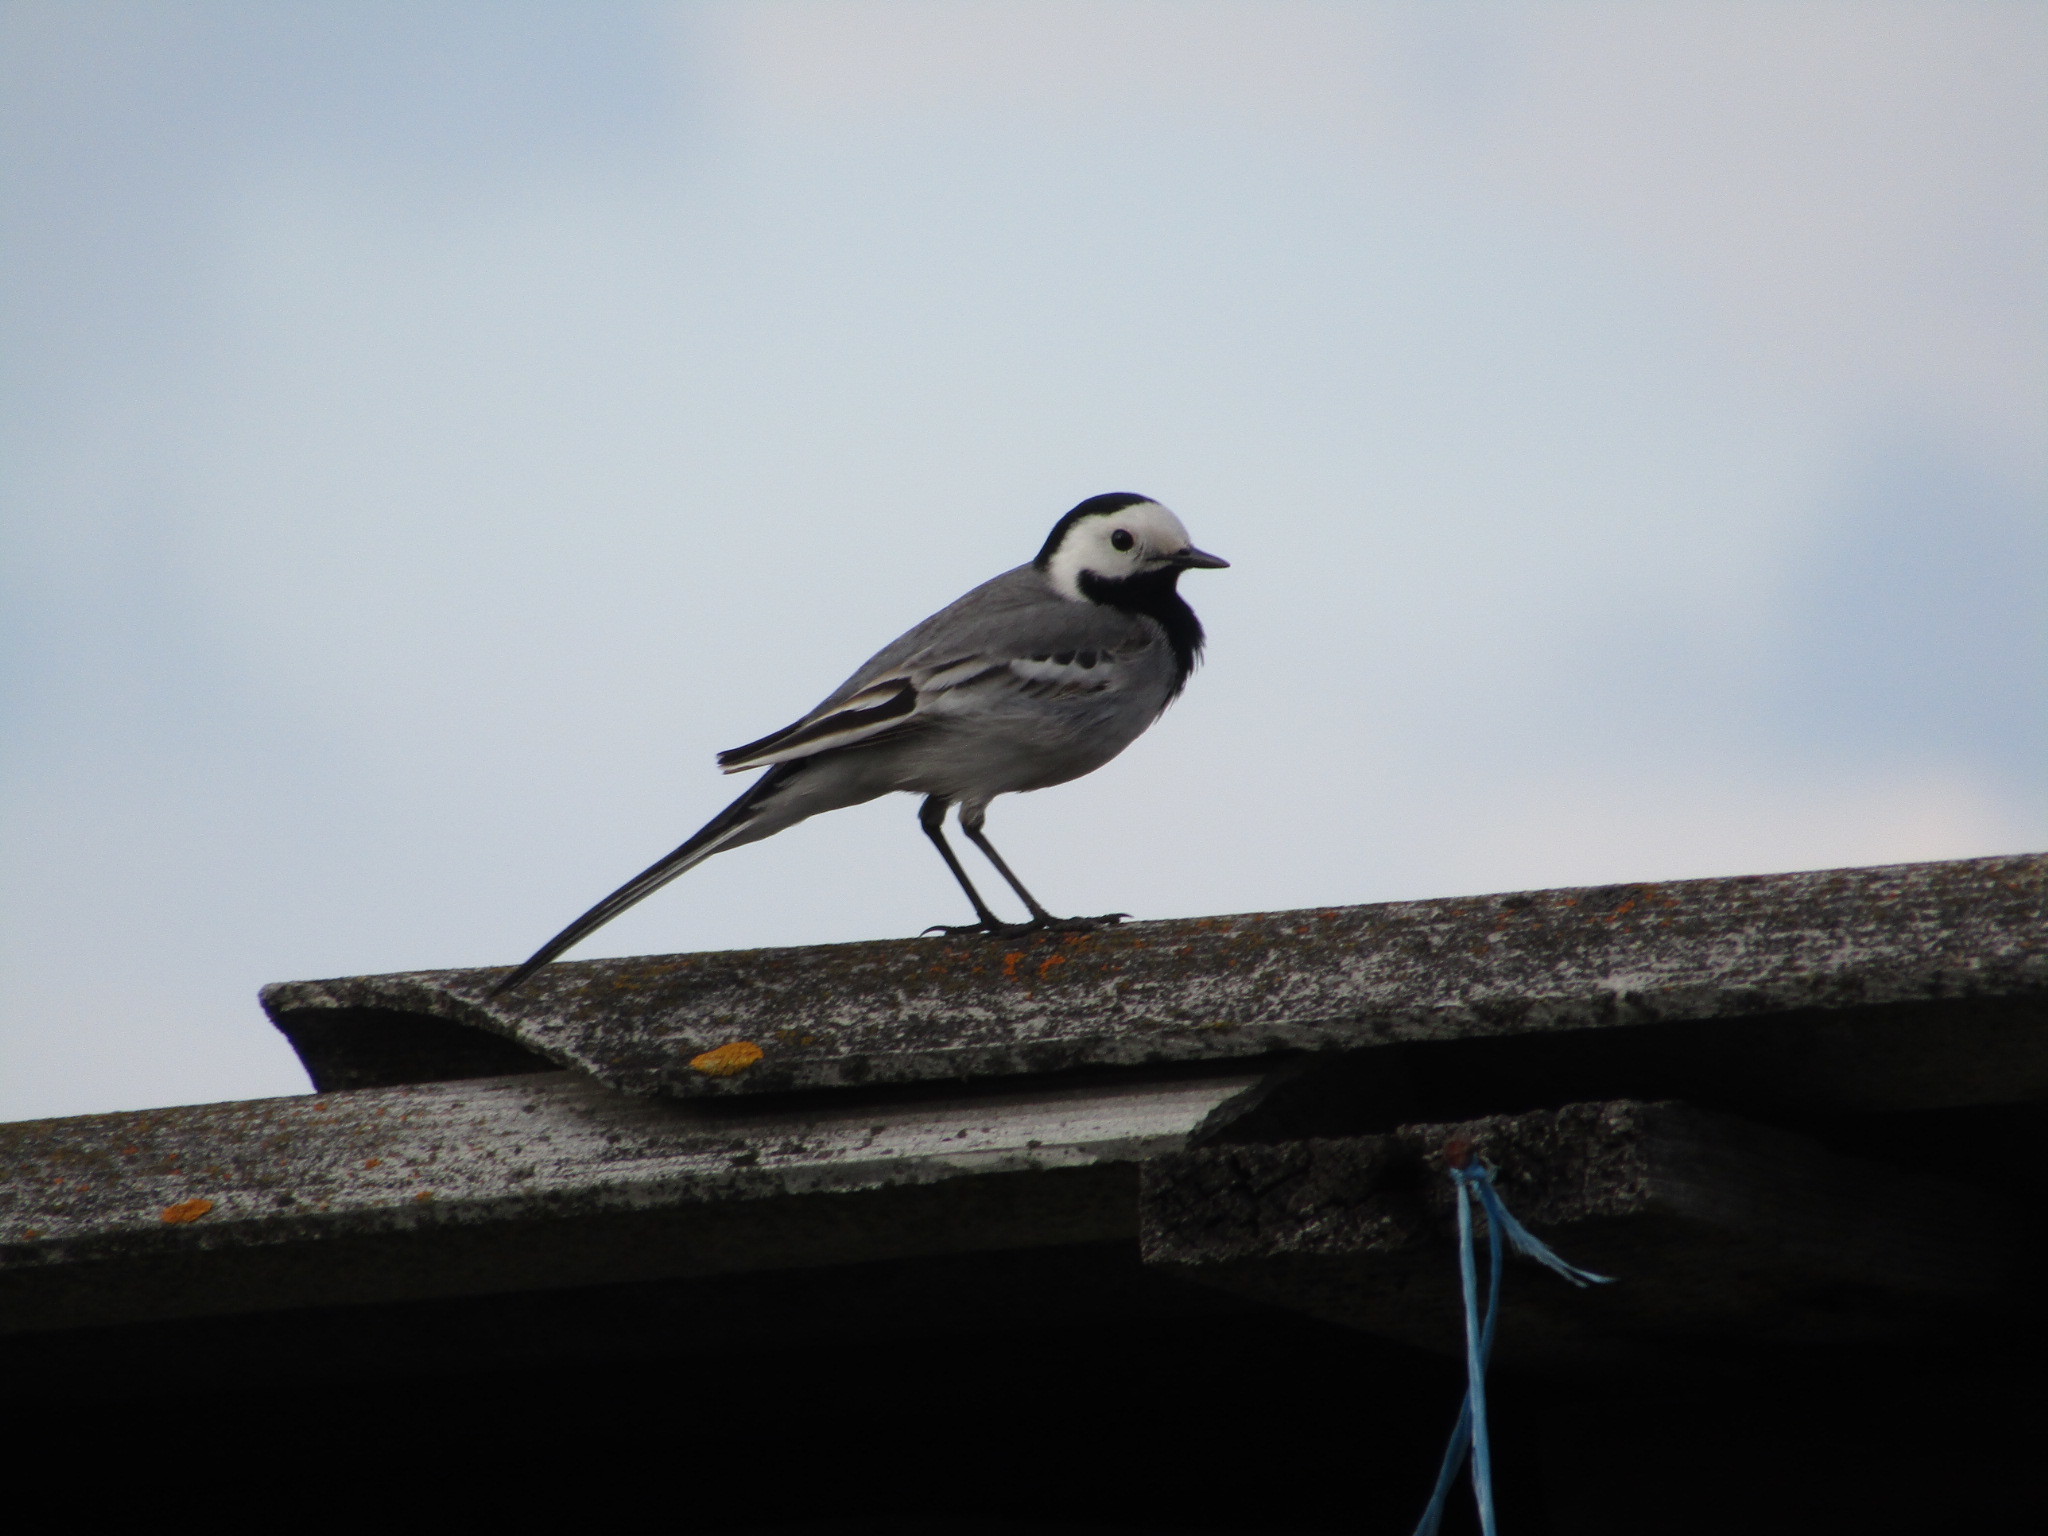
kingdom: Animalia
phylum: Chordata
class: Aves
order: Passeriformes
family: Motacillidae
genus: Motacilla
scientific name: Motacilla alba
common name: White wagtail
